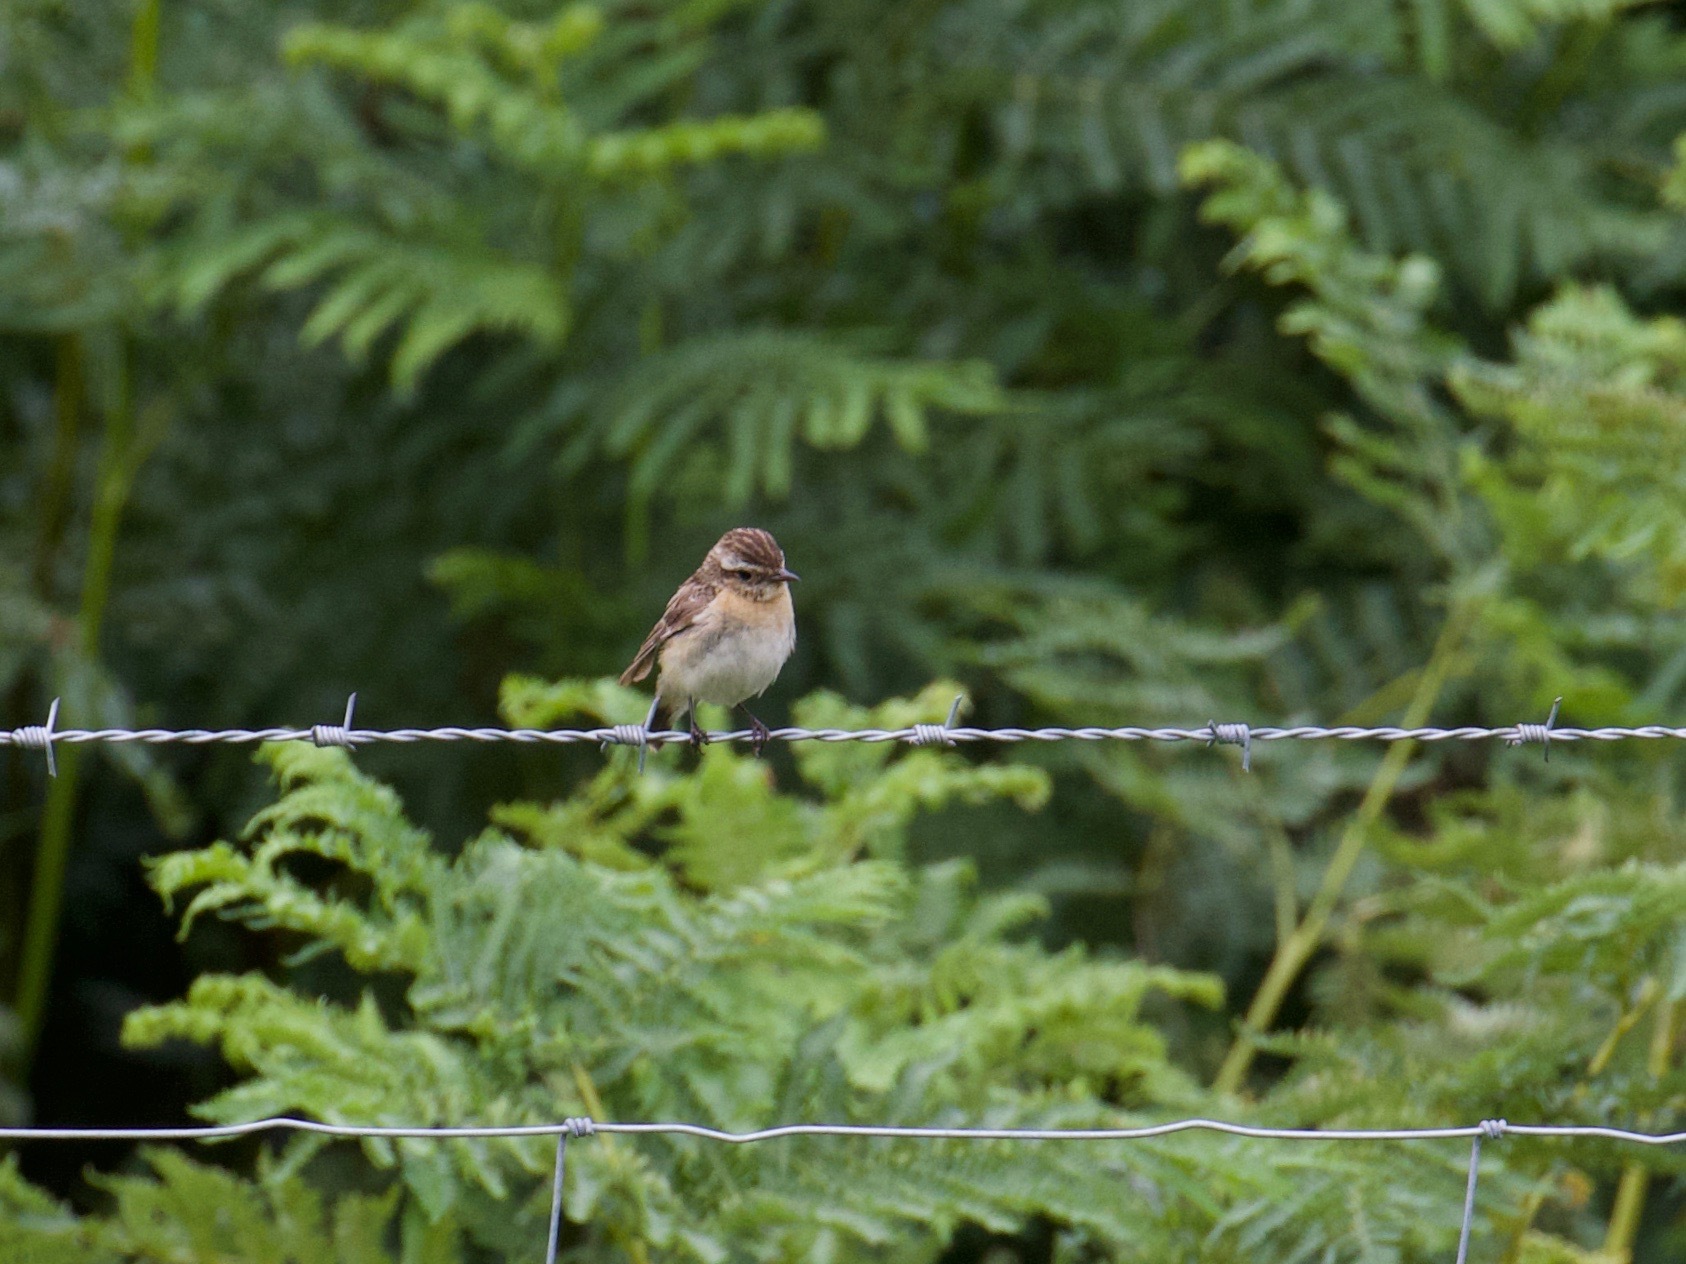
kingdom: Animalia
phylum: Chordata
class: Aves
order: Passeriformes
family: Muscicapidae
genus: Saxicola
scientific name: Saxicola rubetra
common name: Whinchat
